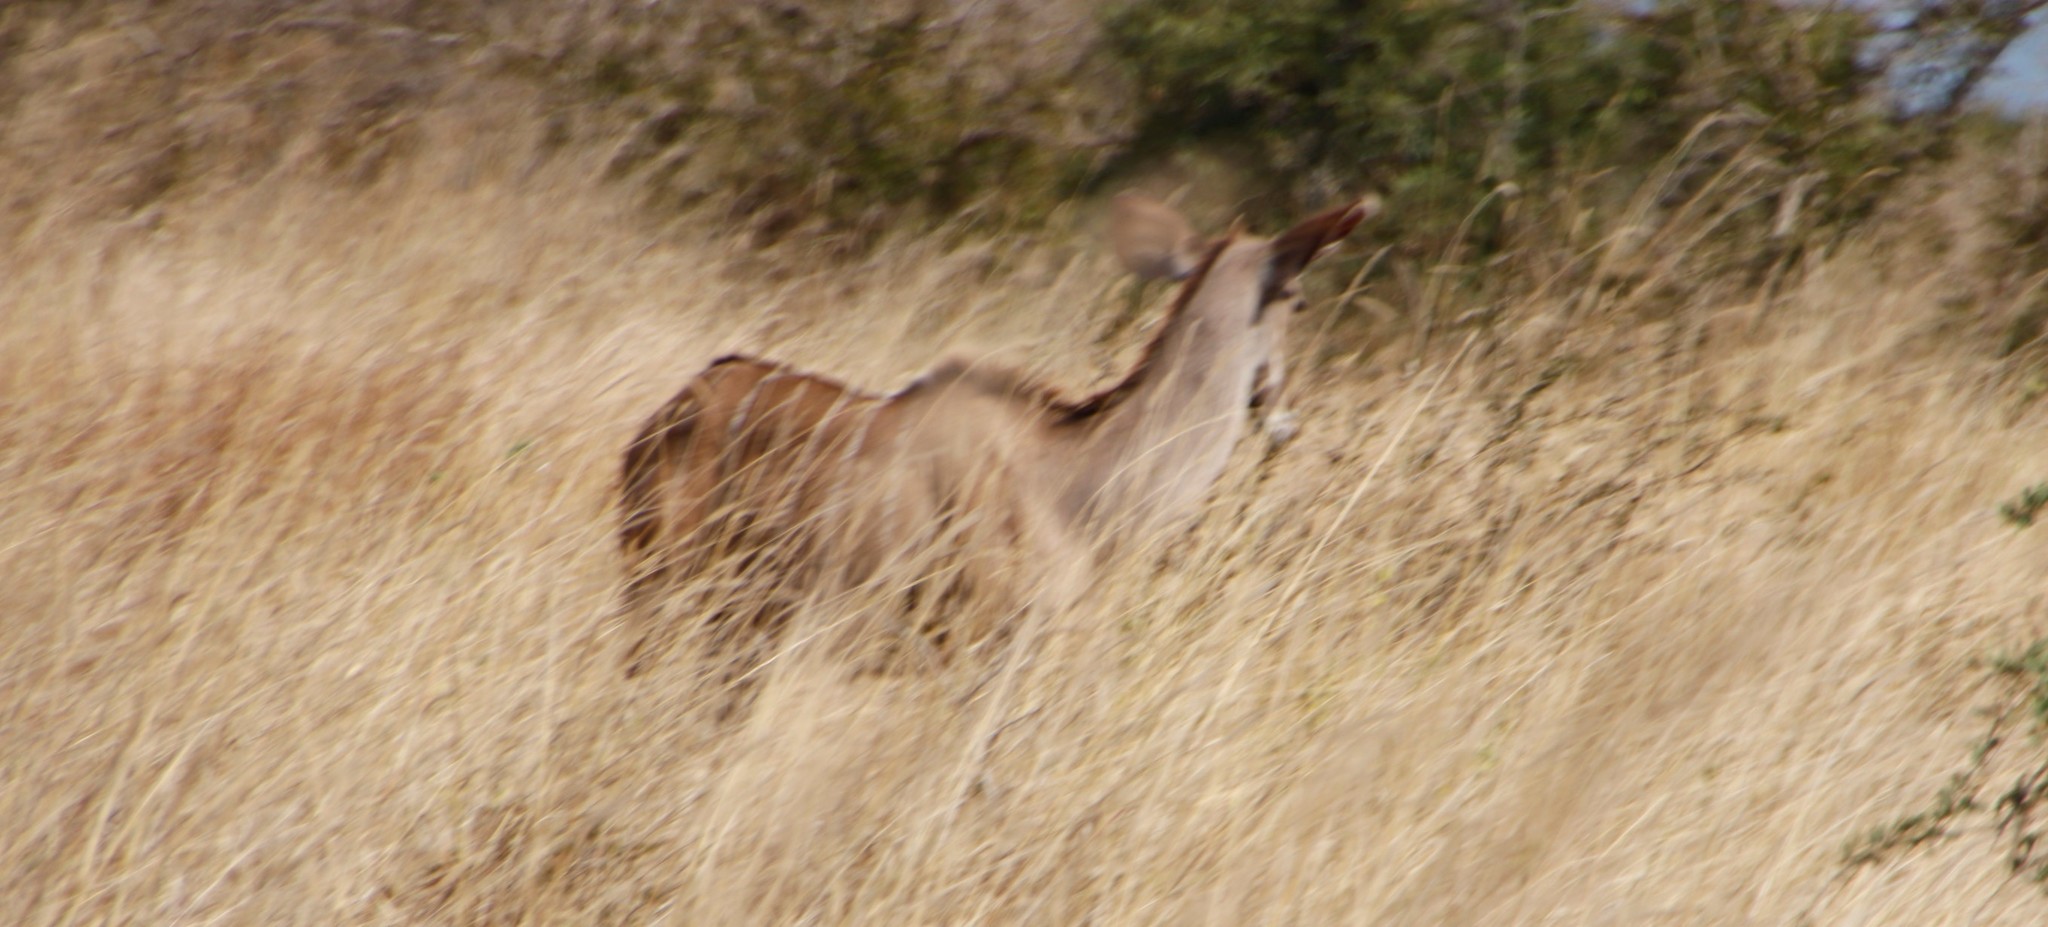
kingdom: Animalia
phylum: Chordata
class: Mammalia
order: Artiodactyla
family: Bovidae
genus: Tragelaphus
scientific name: Tragelaphus strepsiceros
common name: Greater kudu
